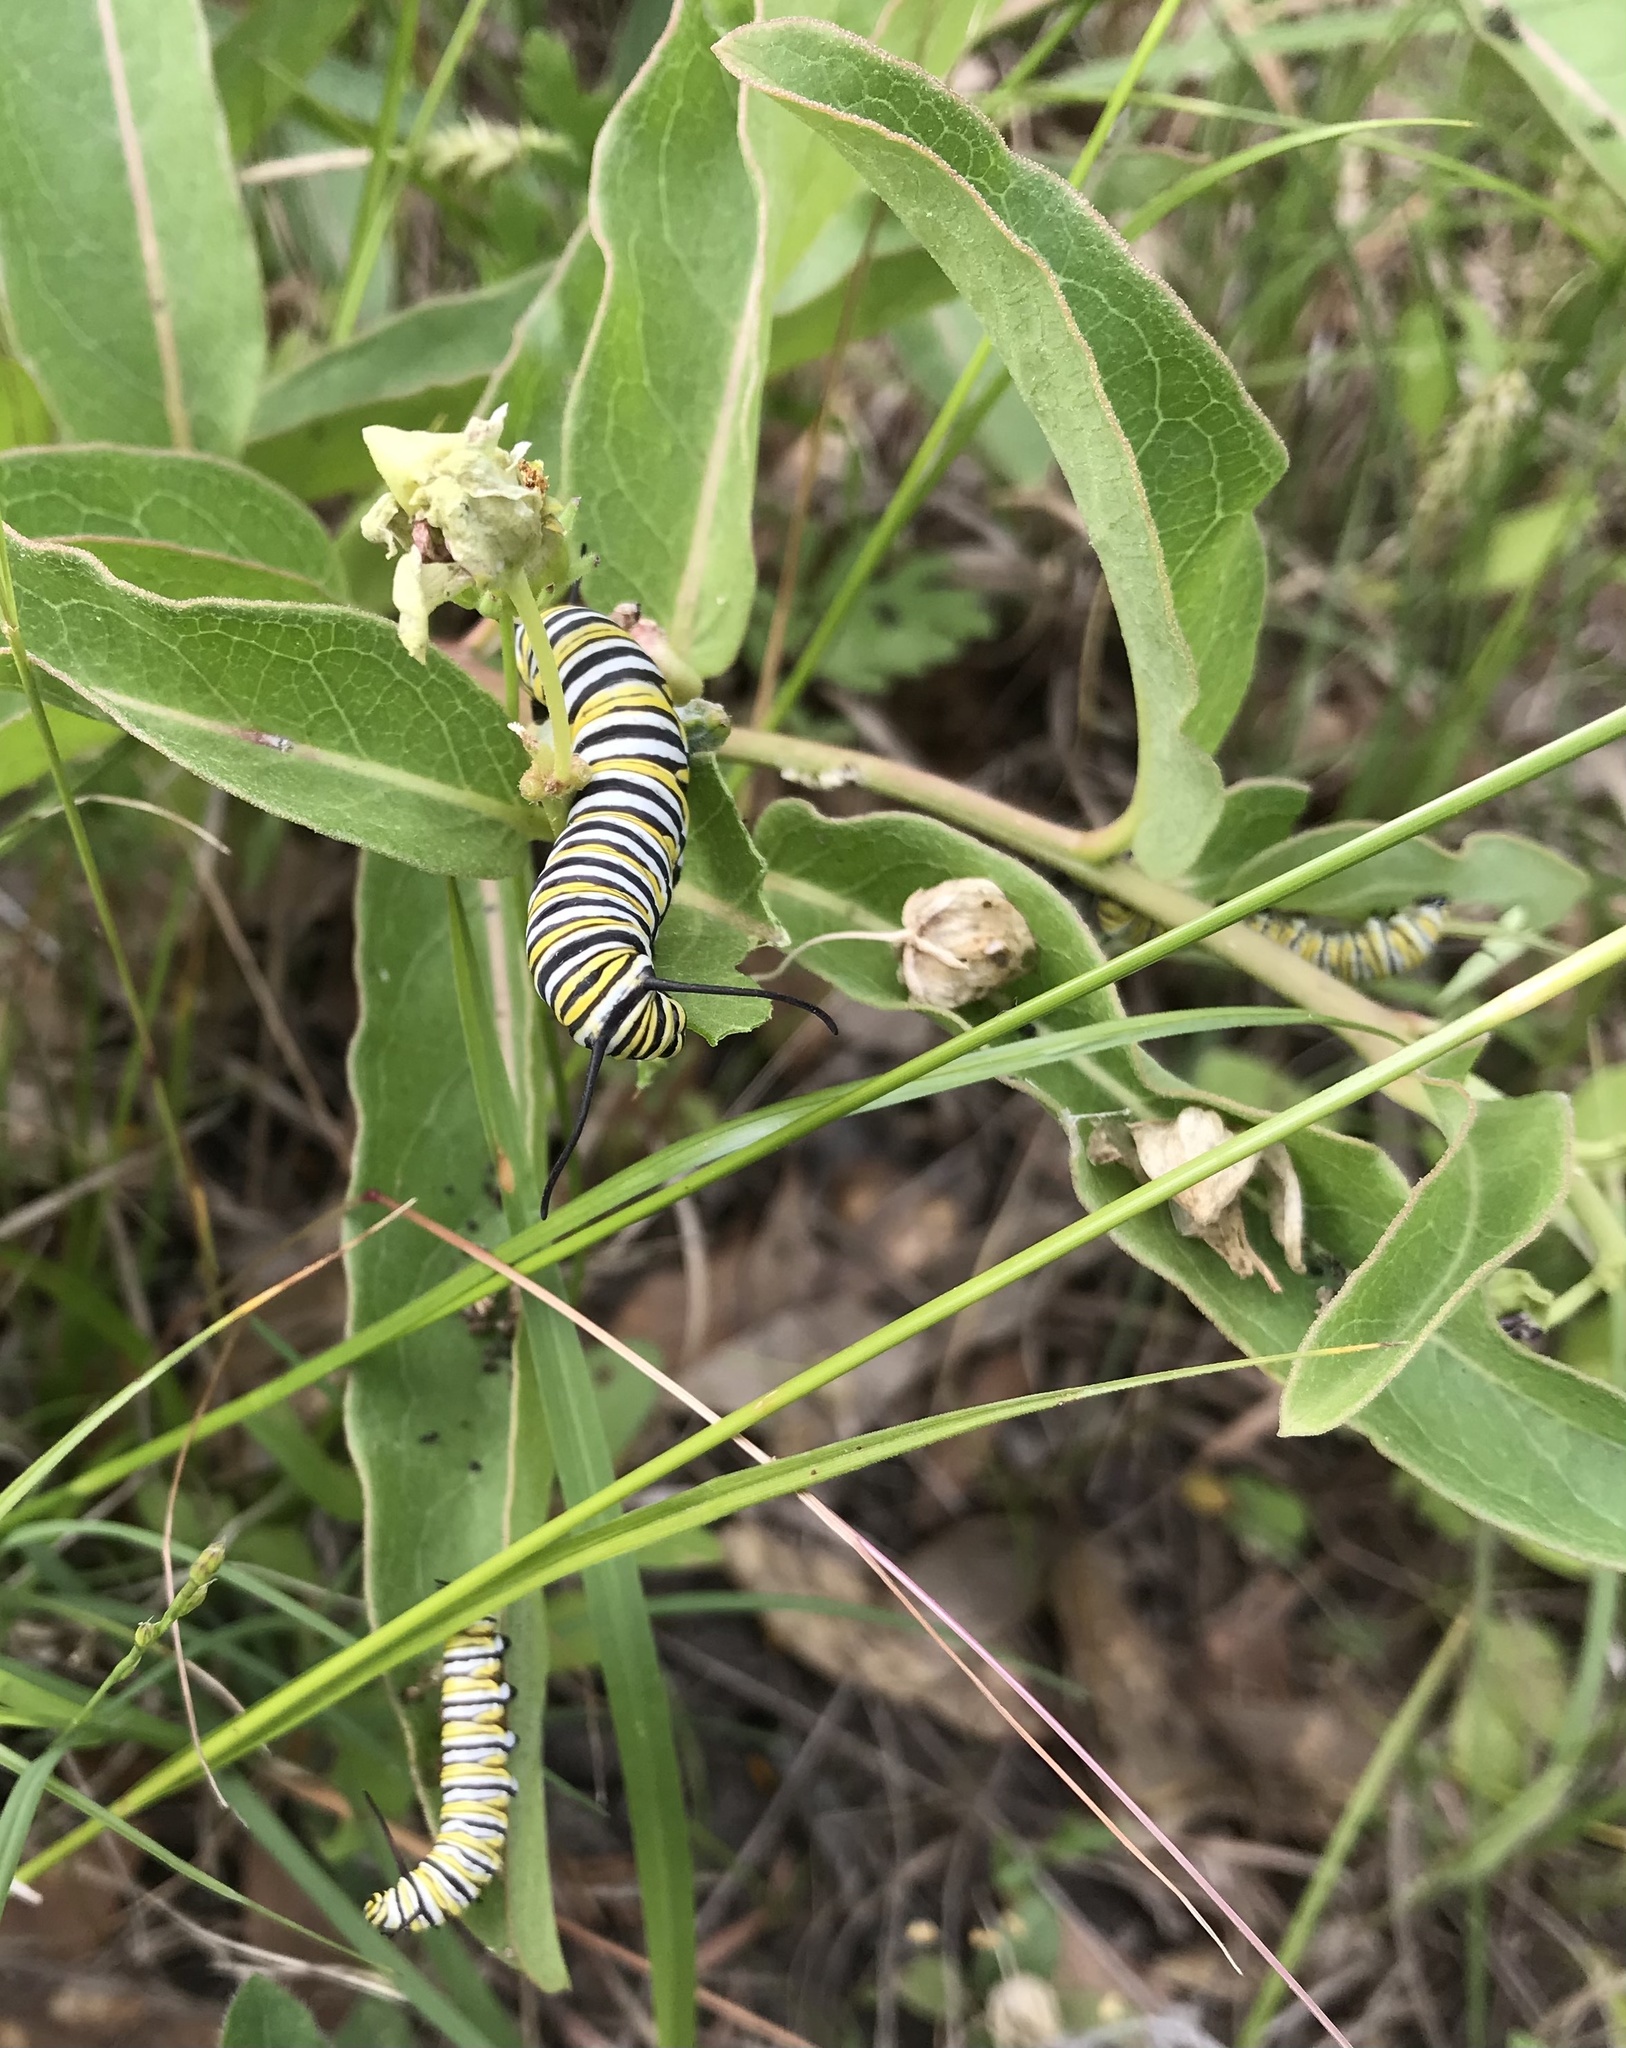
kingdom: Animalia
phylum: Arthropoda
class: Insecta
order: Lepidoptera
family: Nymphalidae
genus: Danaus
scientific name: Danaus plexippus
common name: Monarch
